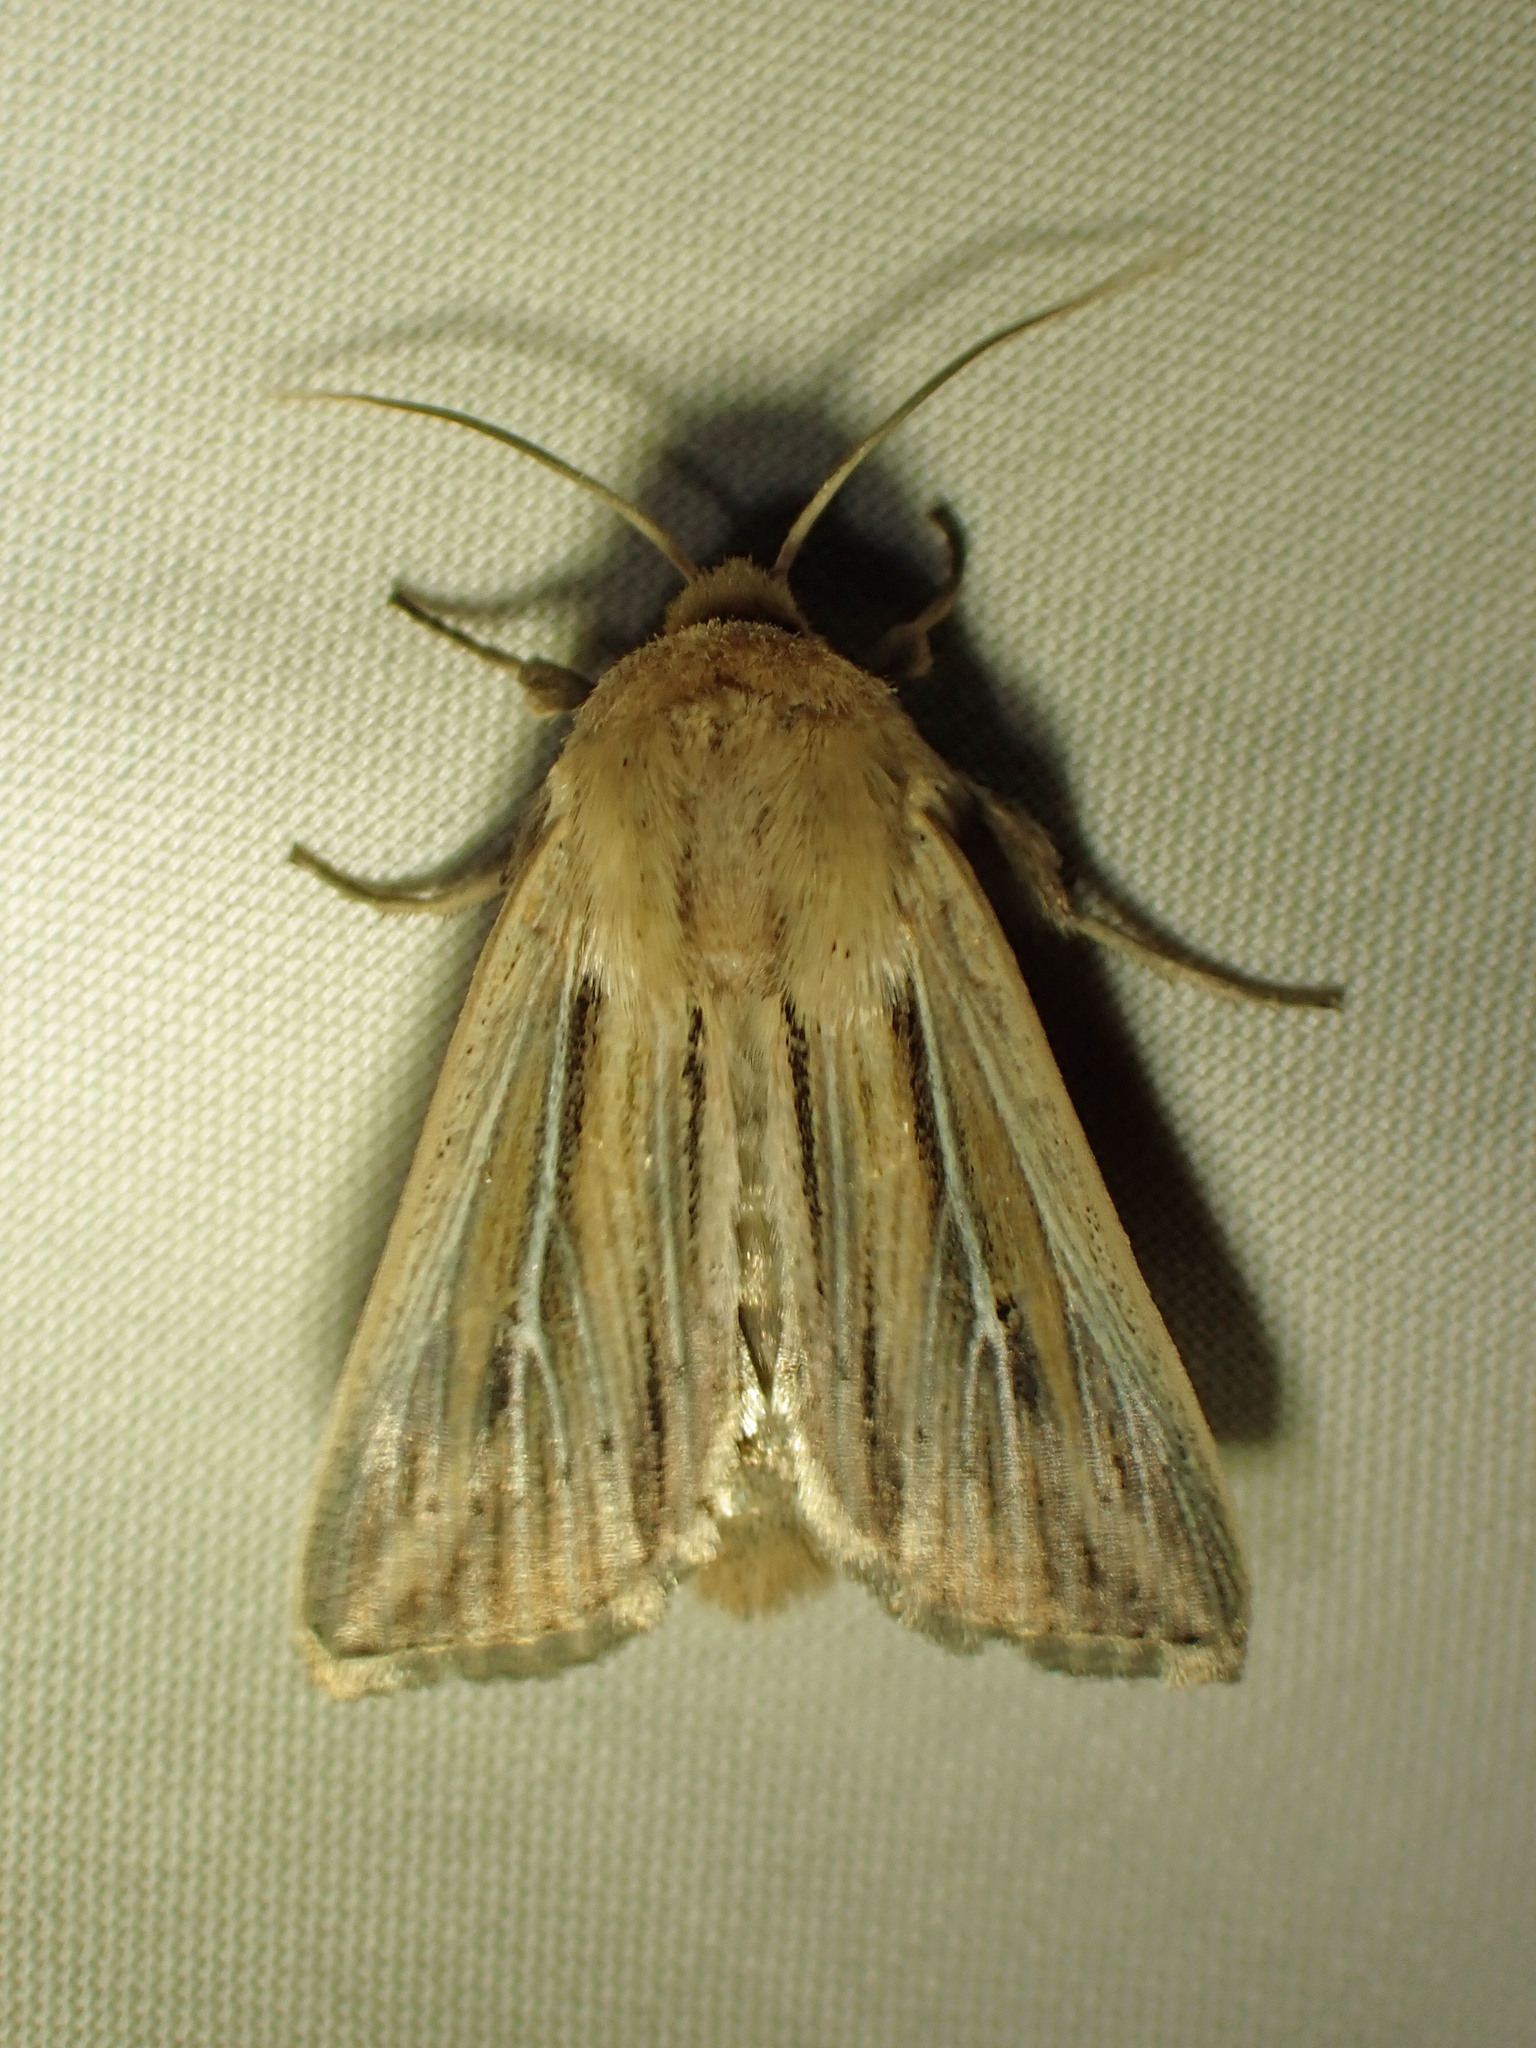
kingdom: Animalia
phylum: Arthropoda
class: Insecta
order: Lepidoptera
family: Noctuidae
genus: Leucania
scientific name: Leucania commoides
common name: Two-lined wainscot
